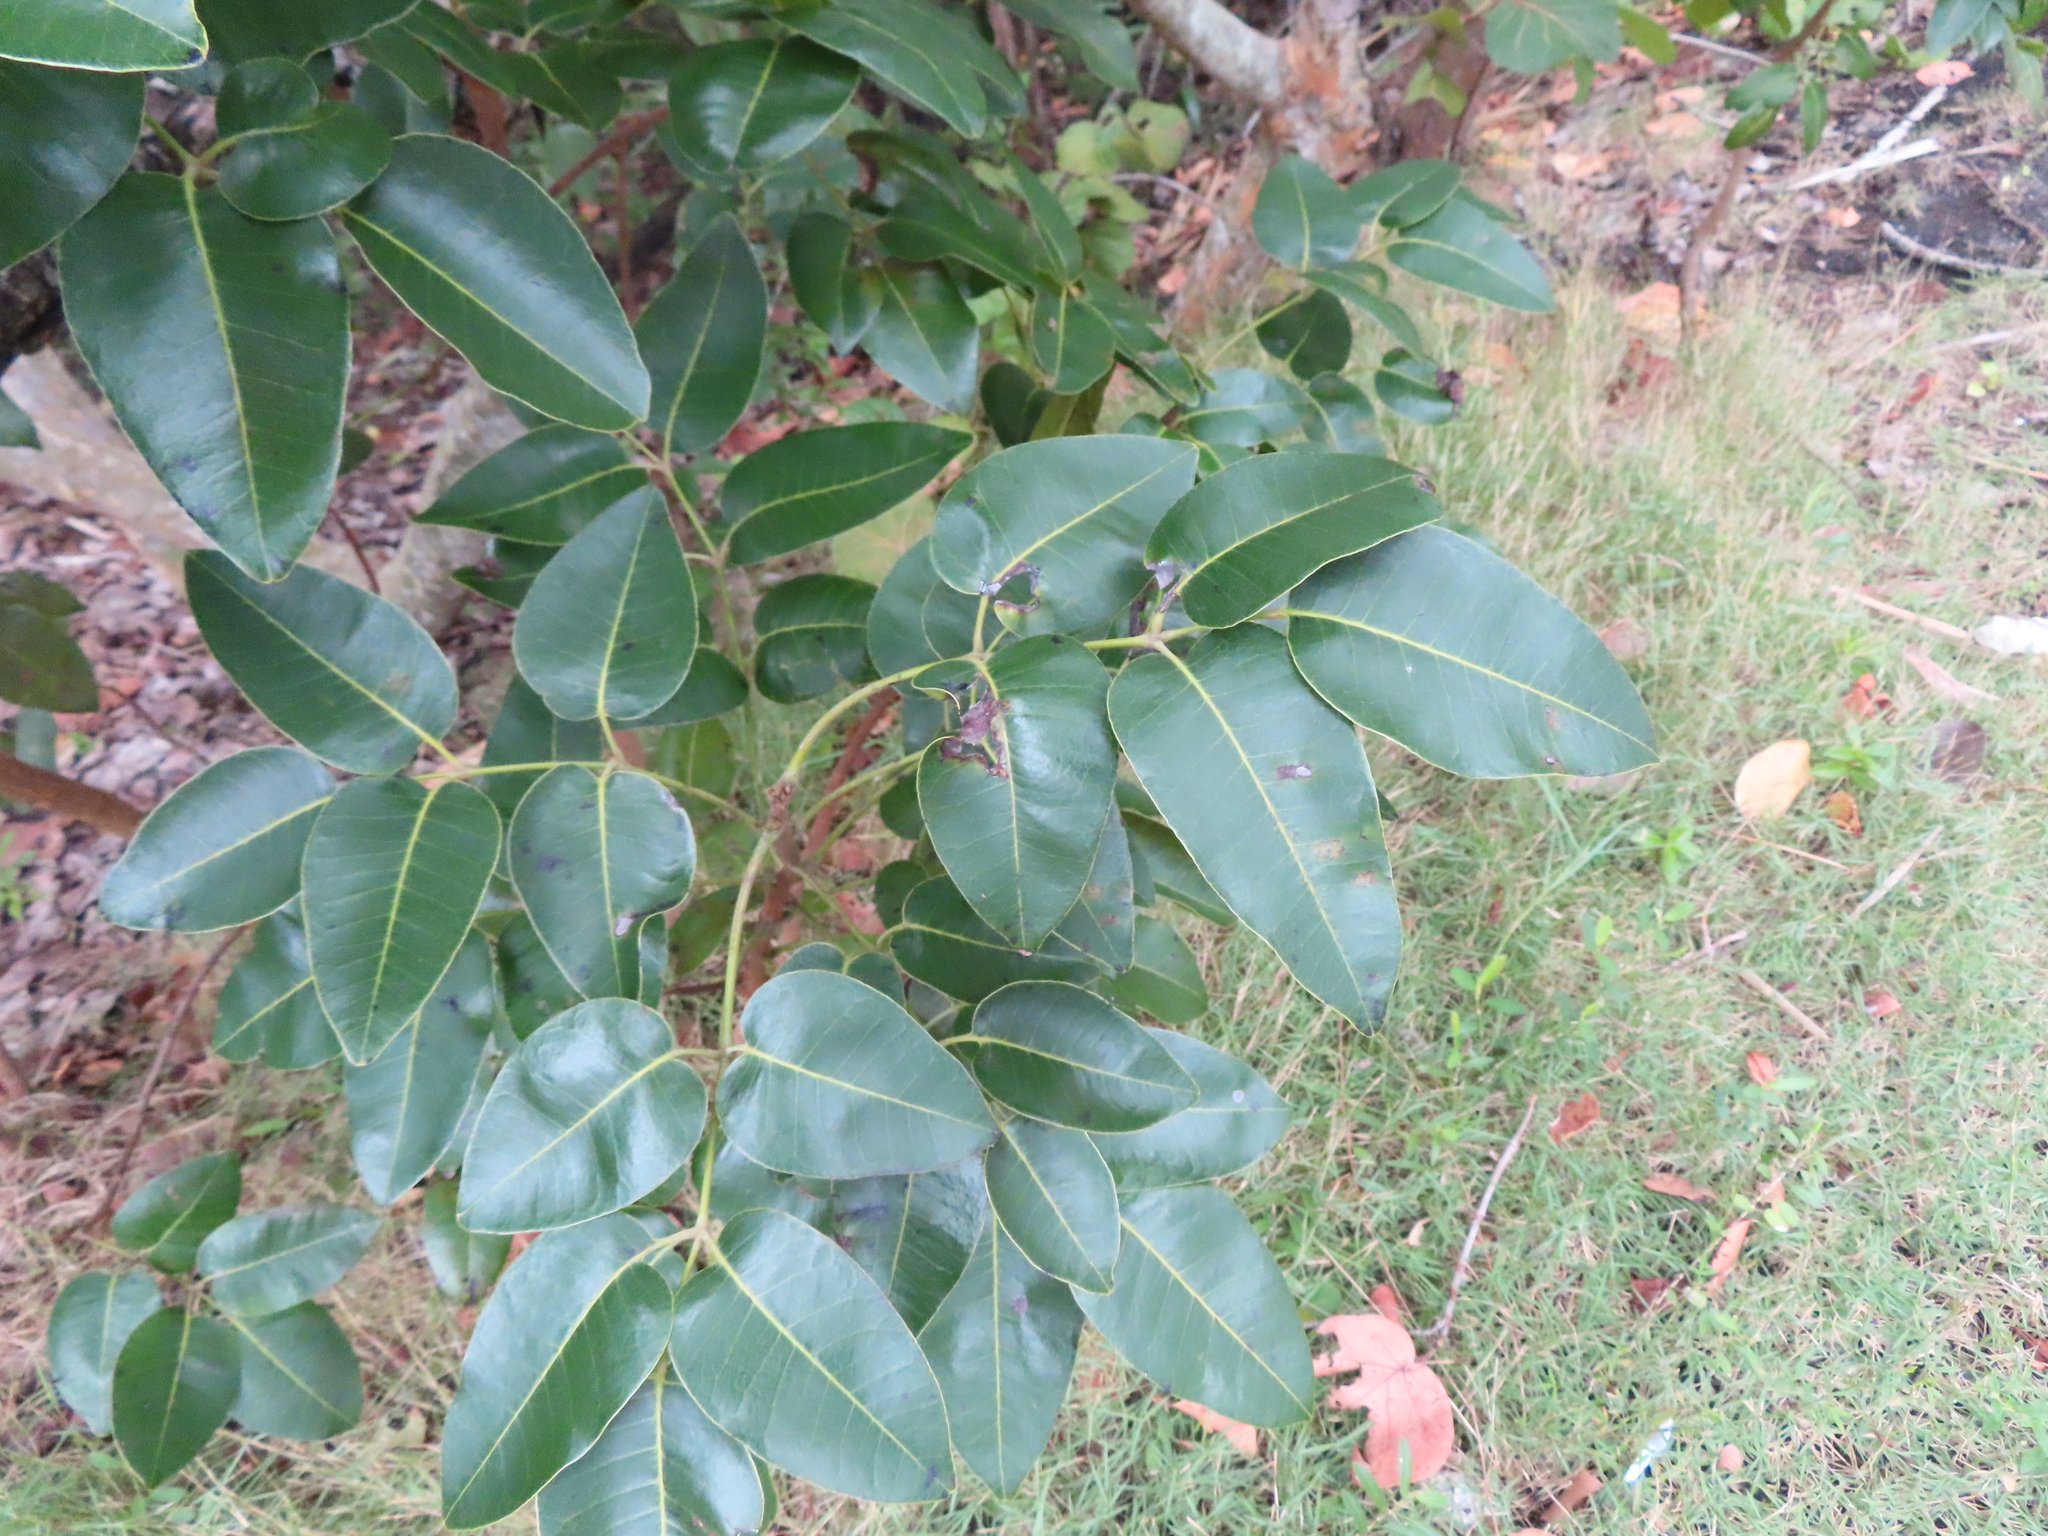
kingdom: Plantae
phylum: Tracheophyta
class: Magnoliopsida
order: Sapindales
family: Anacardiaceae
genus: Metopium
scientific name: Metopium toxiferum
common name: Florida poisontree
